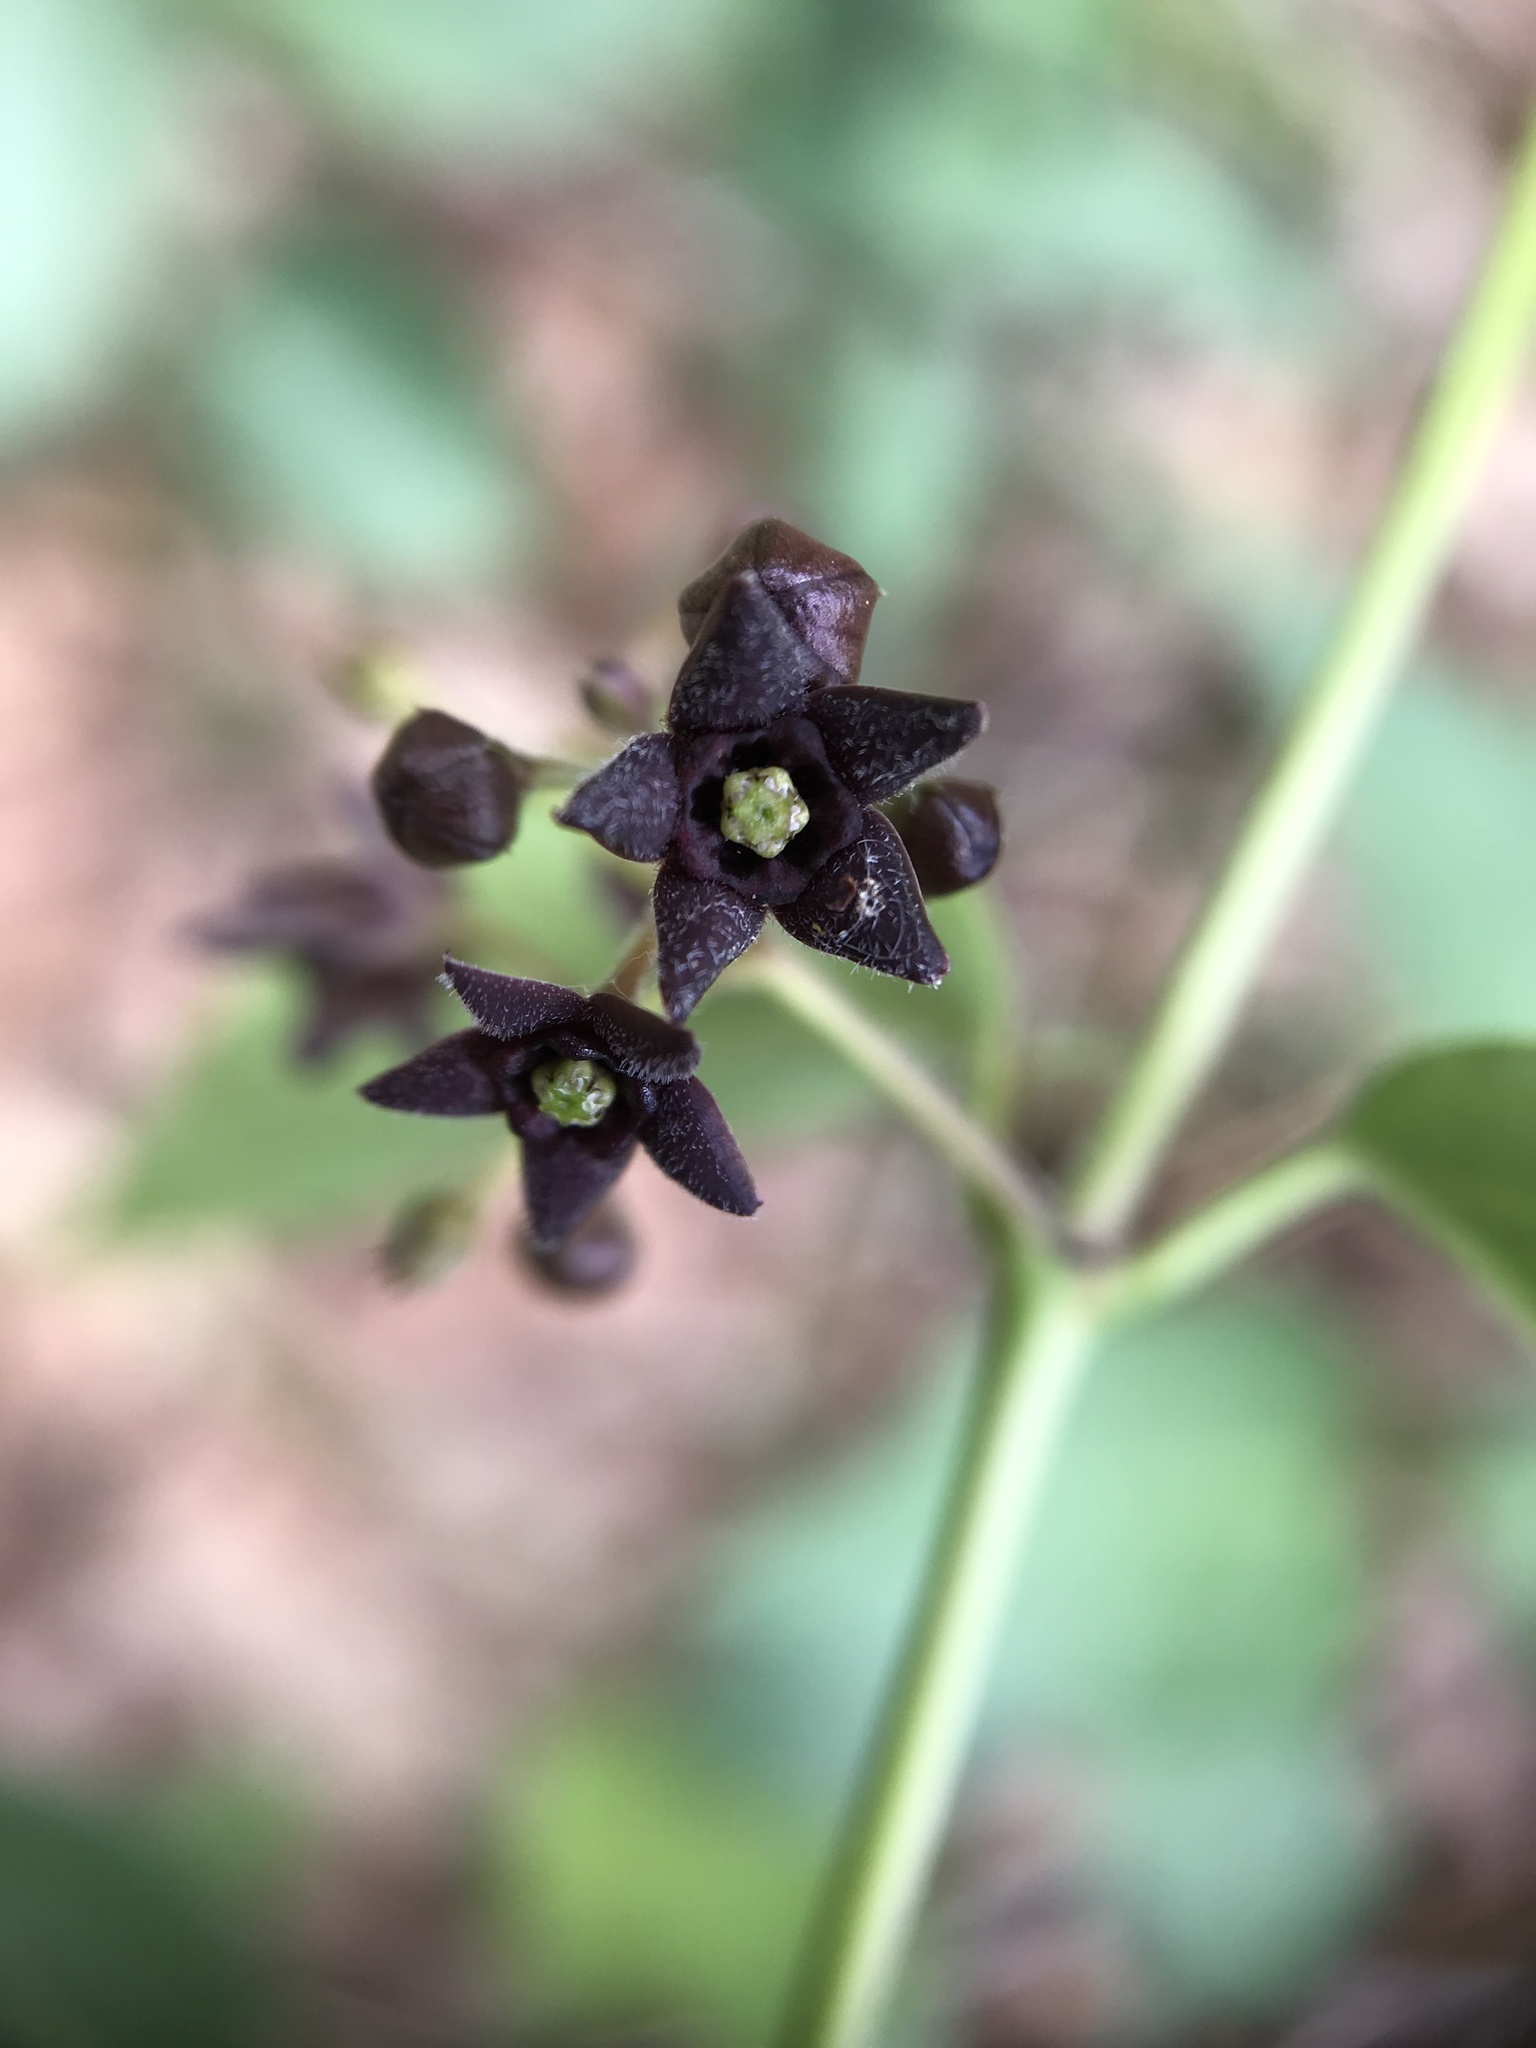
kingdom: Plantae
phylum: Tracheophyta
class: Magnoliopsida
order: Gentianales
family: Apocynaceae
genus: Vincetoxicum
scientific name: Vincetoxicum nigrum
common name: Black swallow-wort
